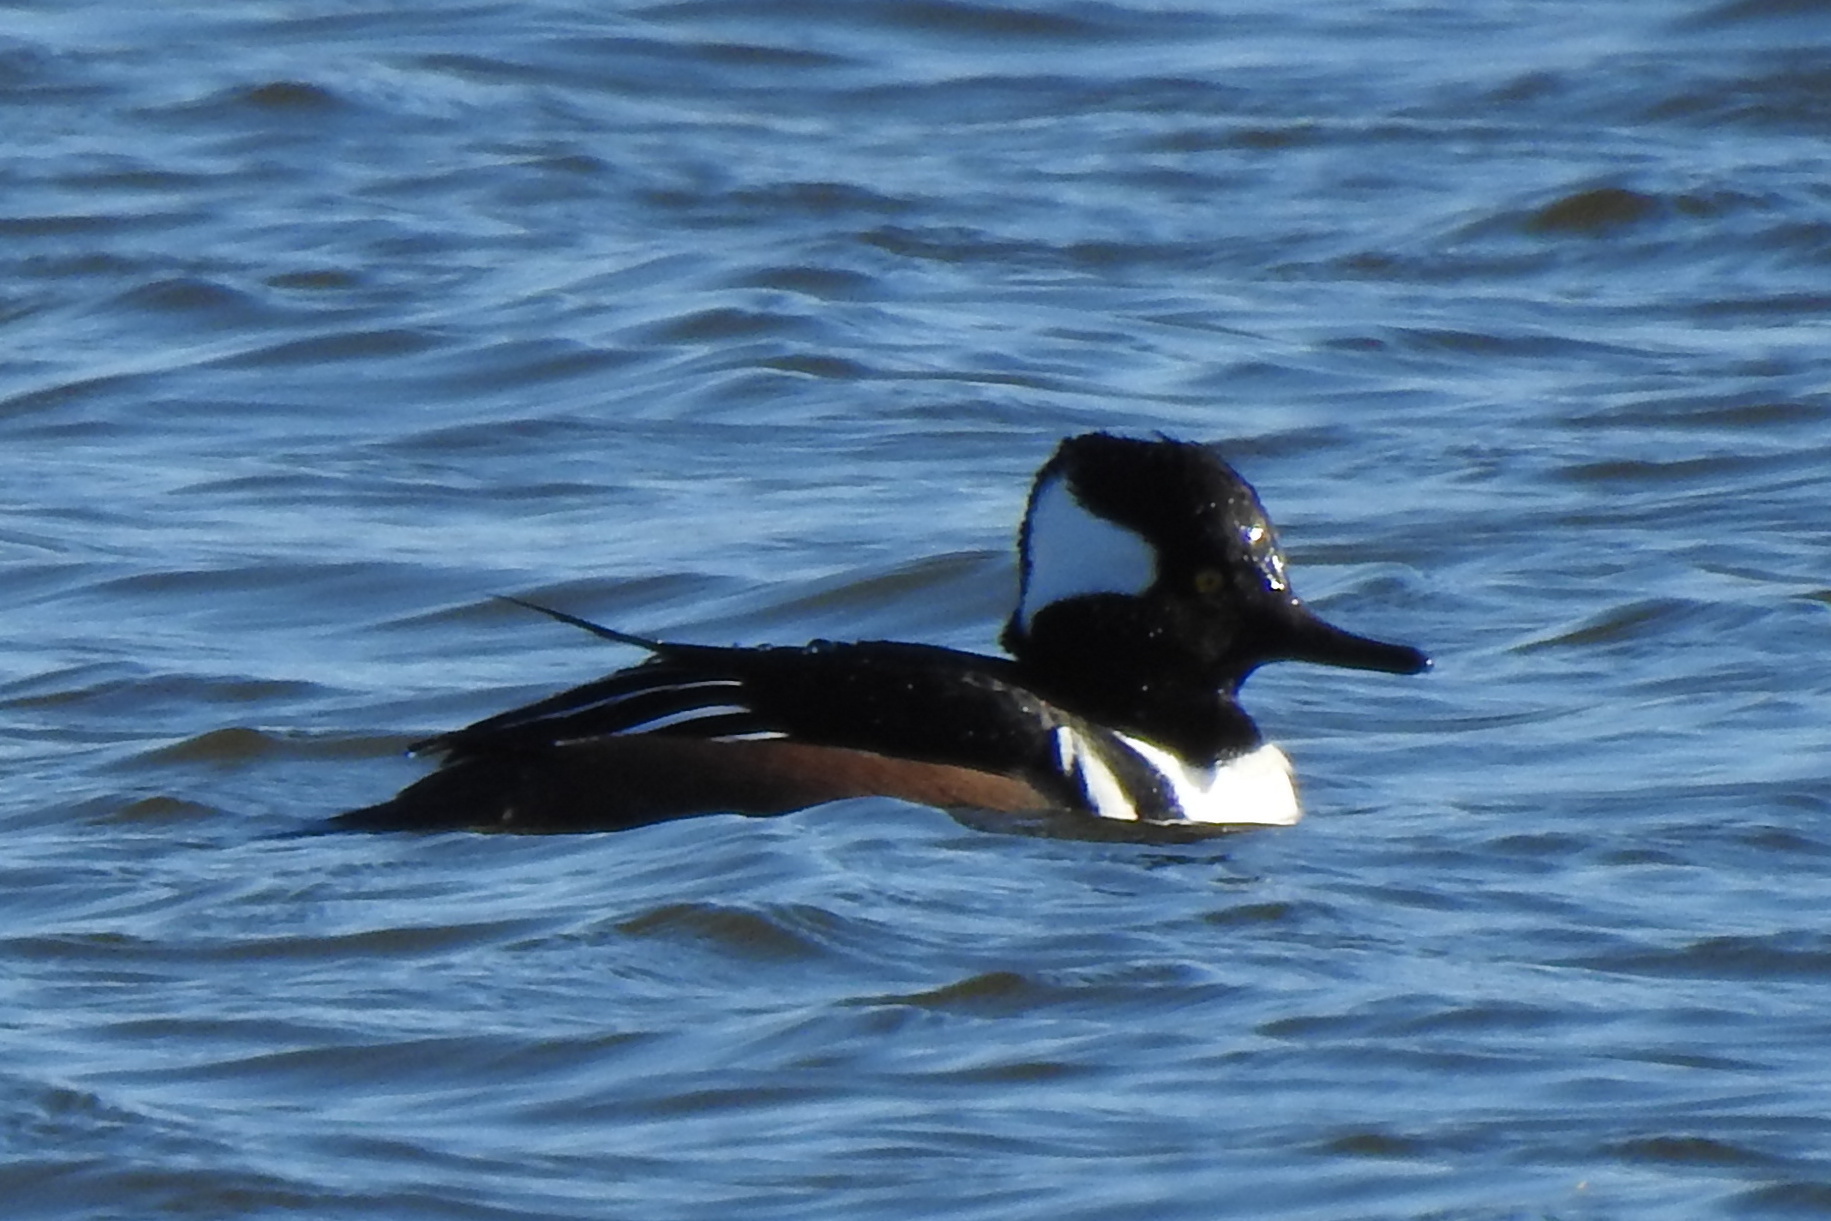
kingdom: Animalia
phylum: Chordata
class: Aves
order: Anseriformes
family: Anatidae
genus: Lophodytes
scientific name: Lophodytes cucullatus
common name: Hooded merganser
